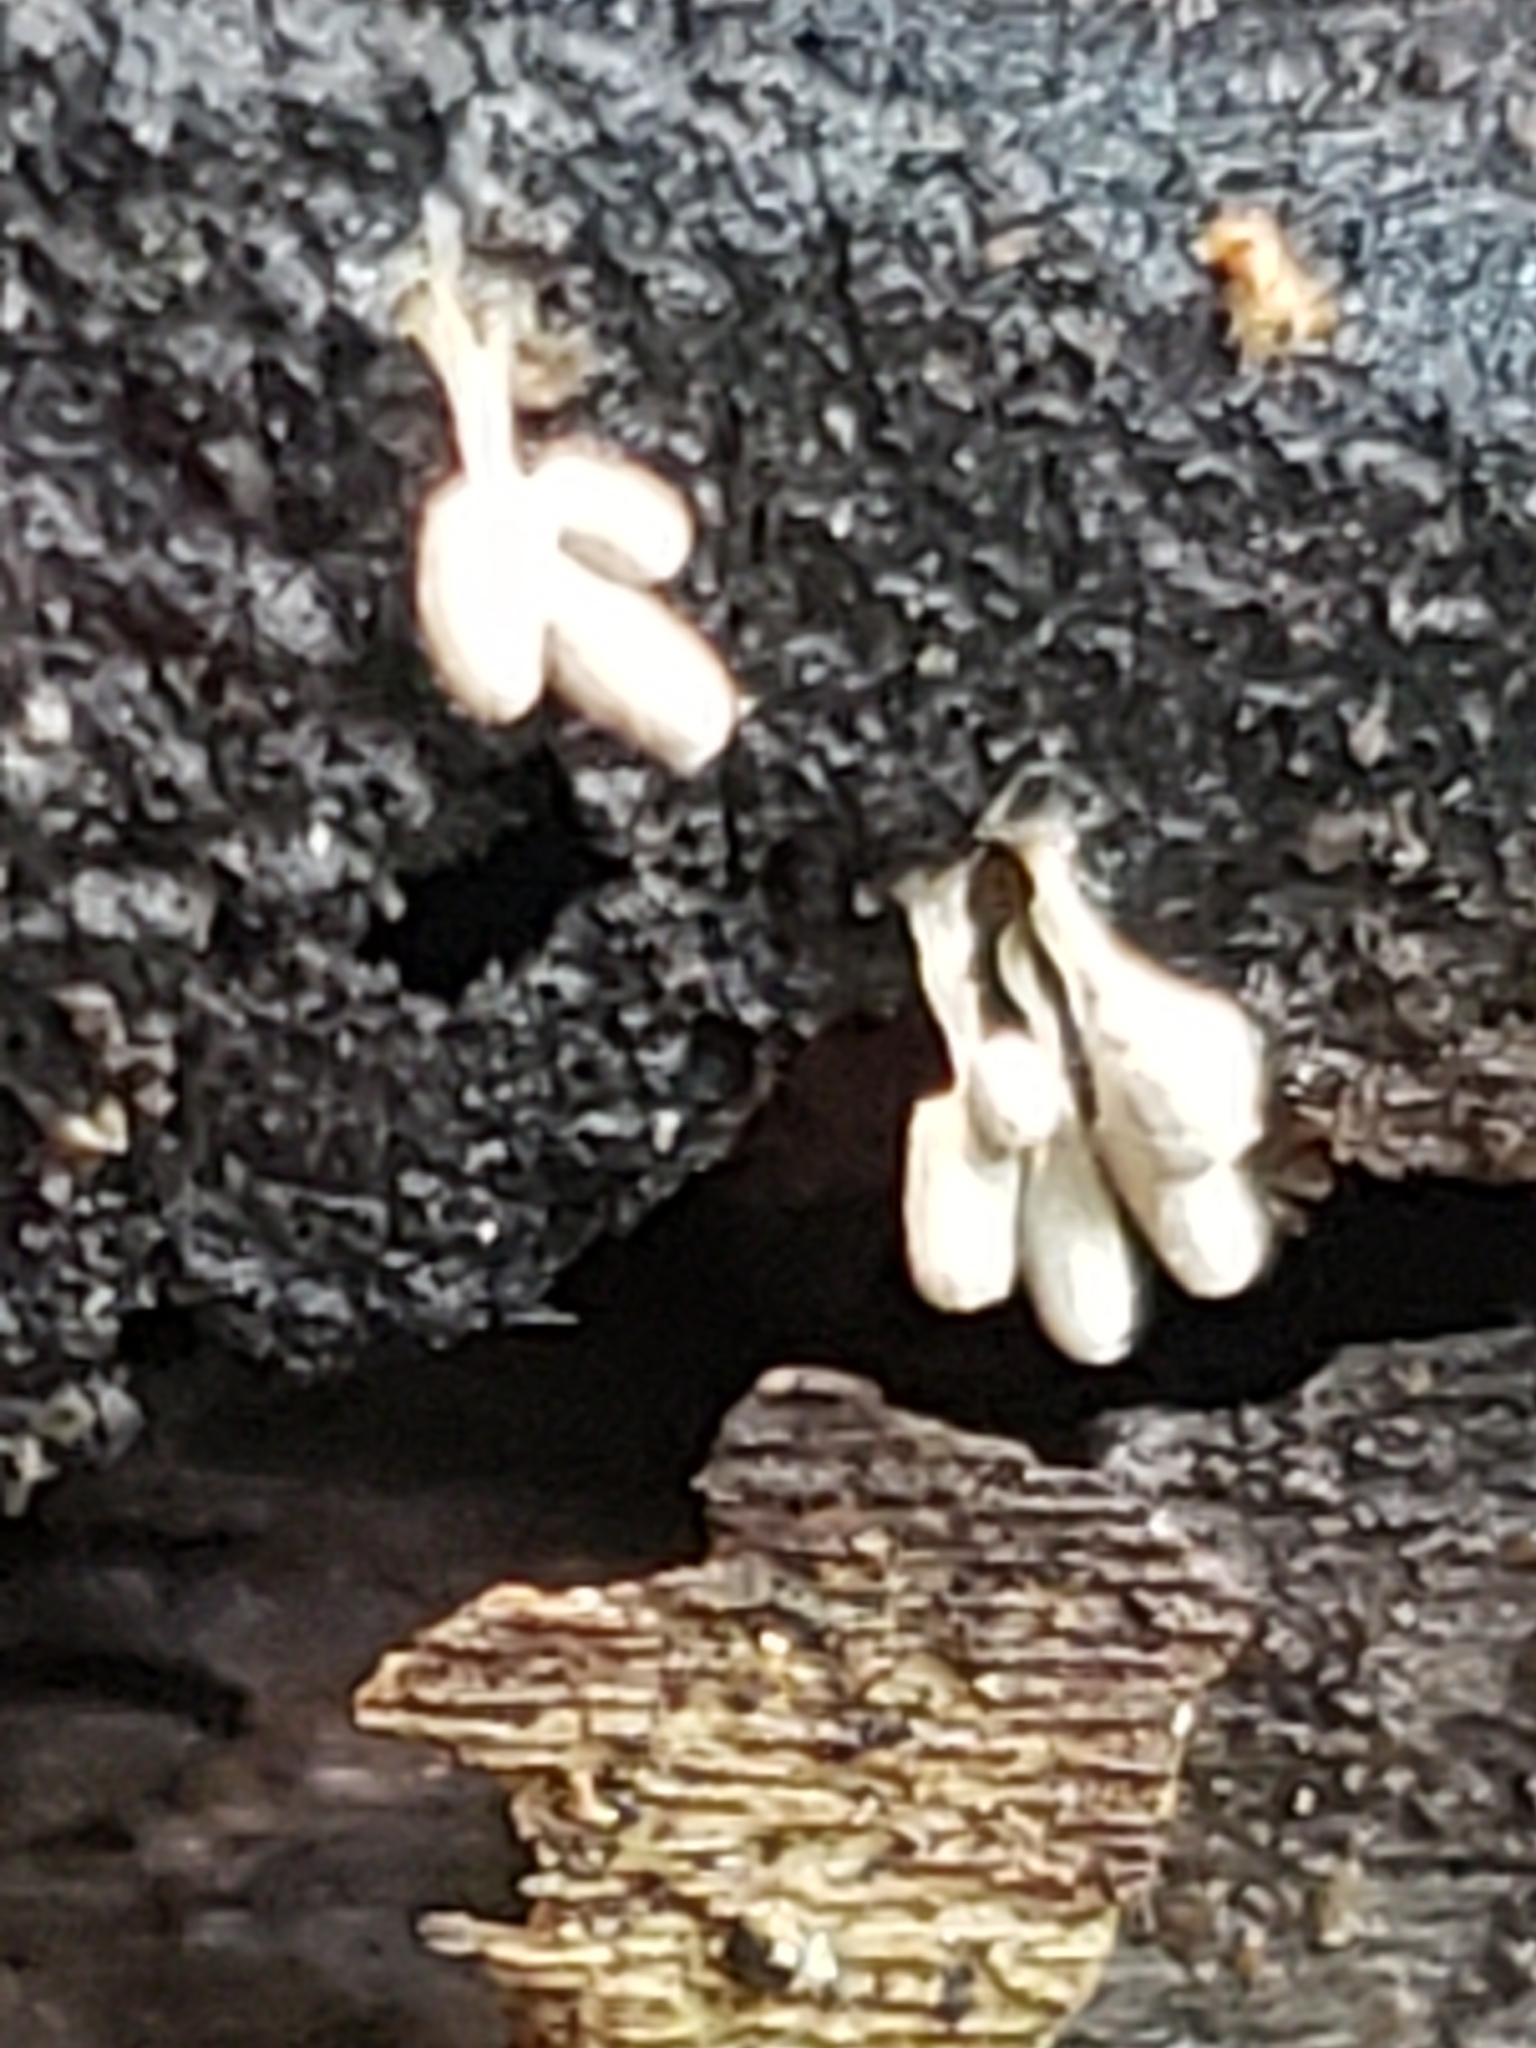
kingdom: Protozoa
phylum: Mycetozoa
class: Myxomycetes
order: Trichiales
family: Arcyriaceae
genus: Arcyria
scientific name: Arcyria cinerea
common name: White carnival candy slime mold
